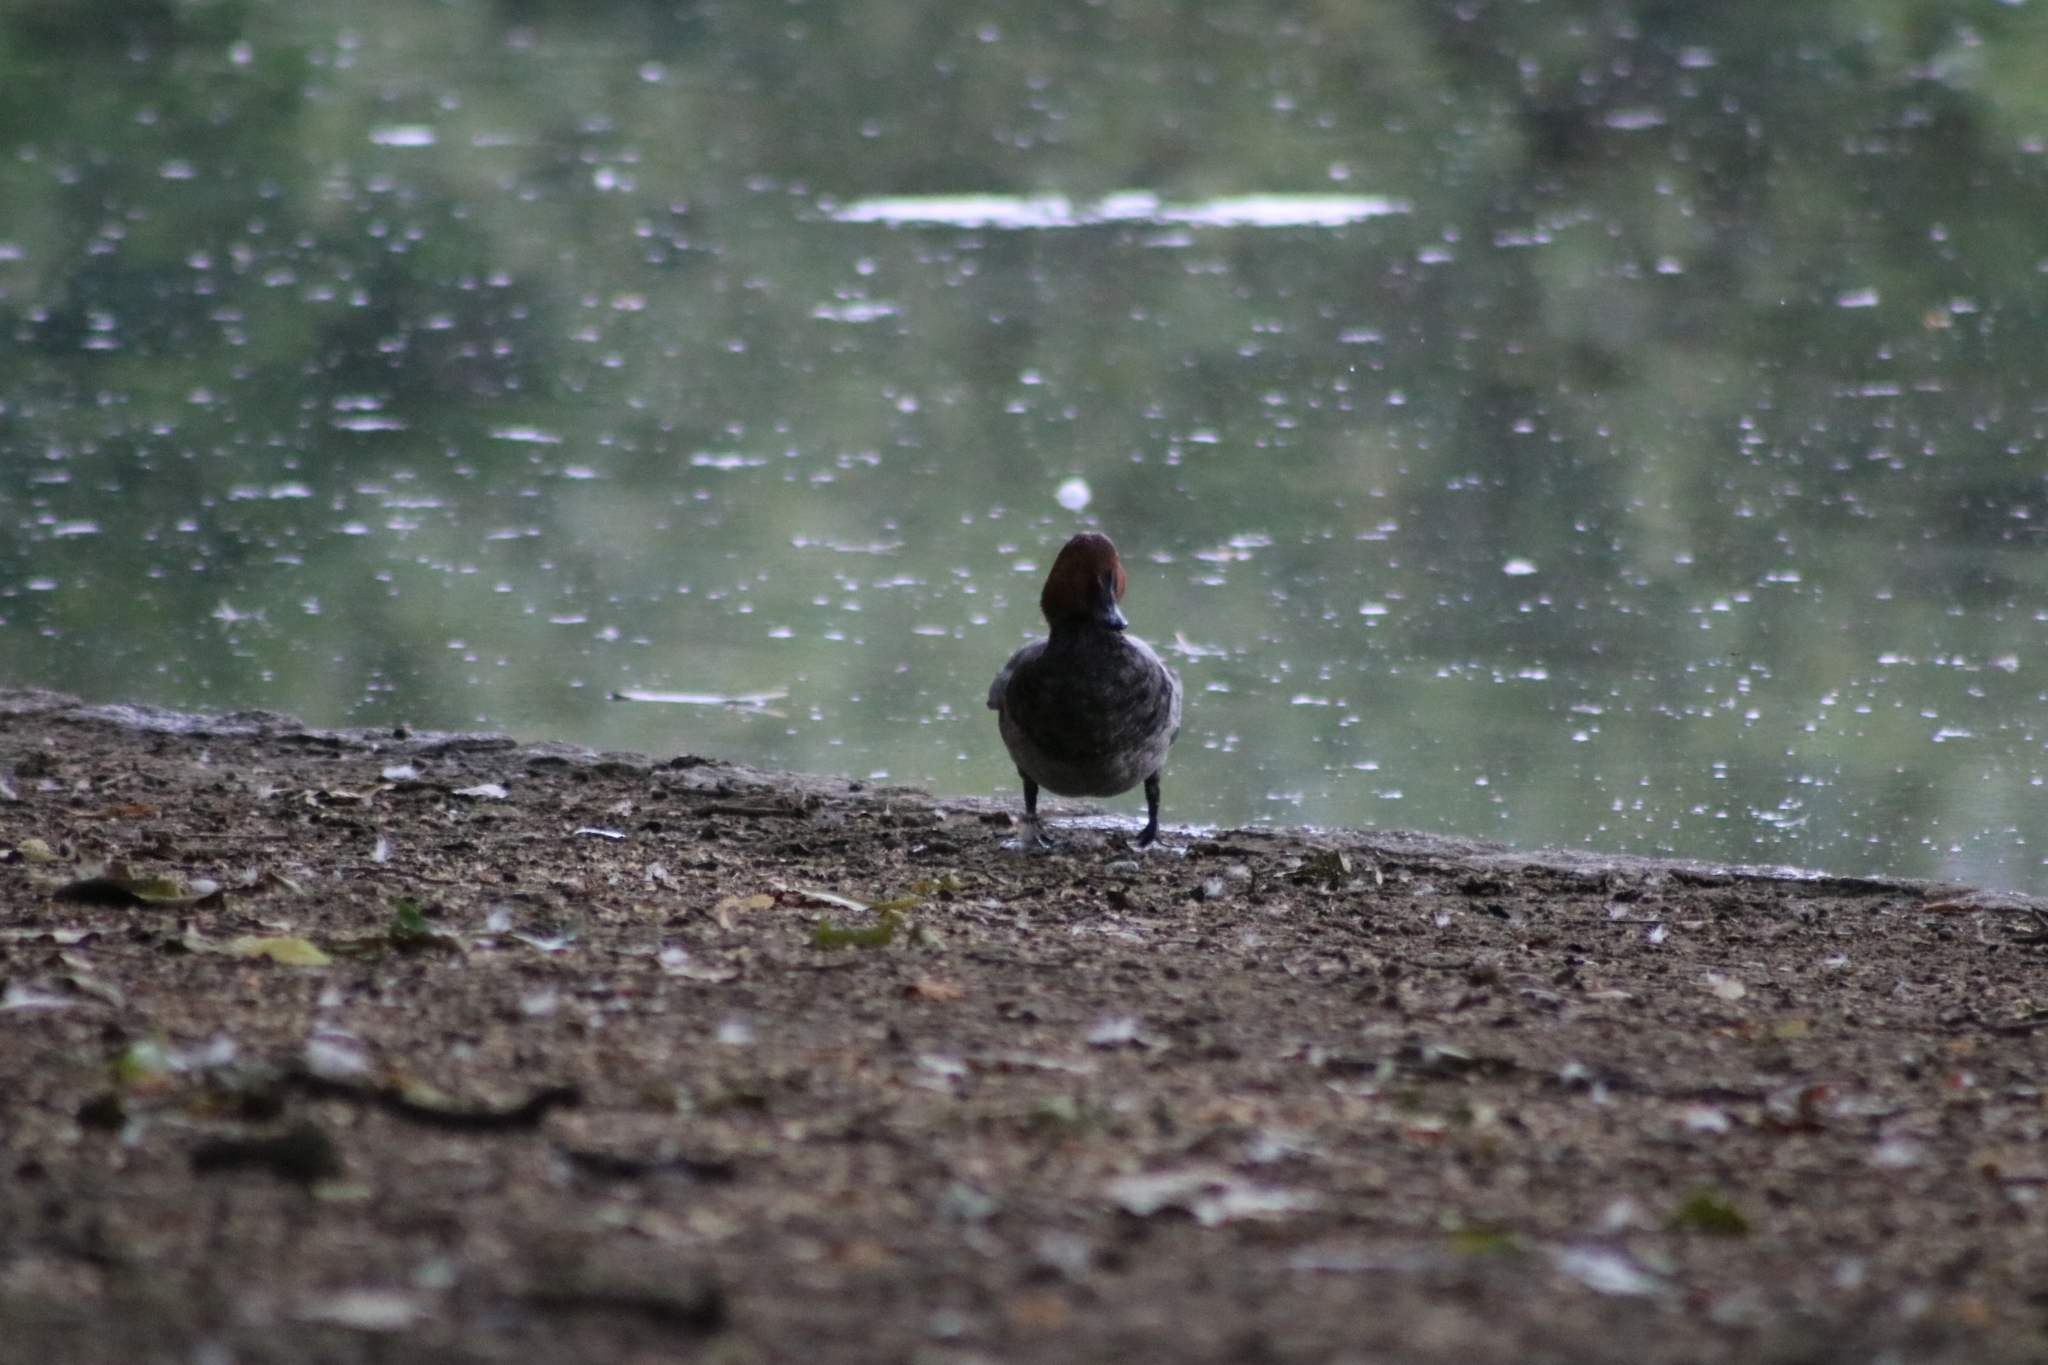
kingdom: Animalia
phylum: Chordata
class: Aves
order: Anseriformes
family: Anatidae
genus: Aythya
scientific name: Aythya ferina
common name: Common pochard
